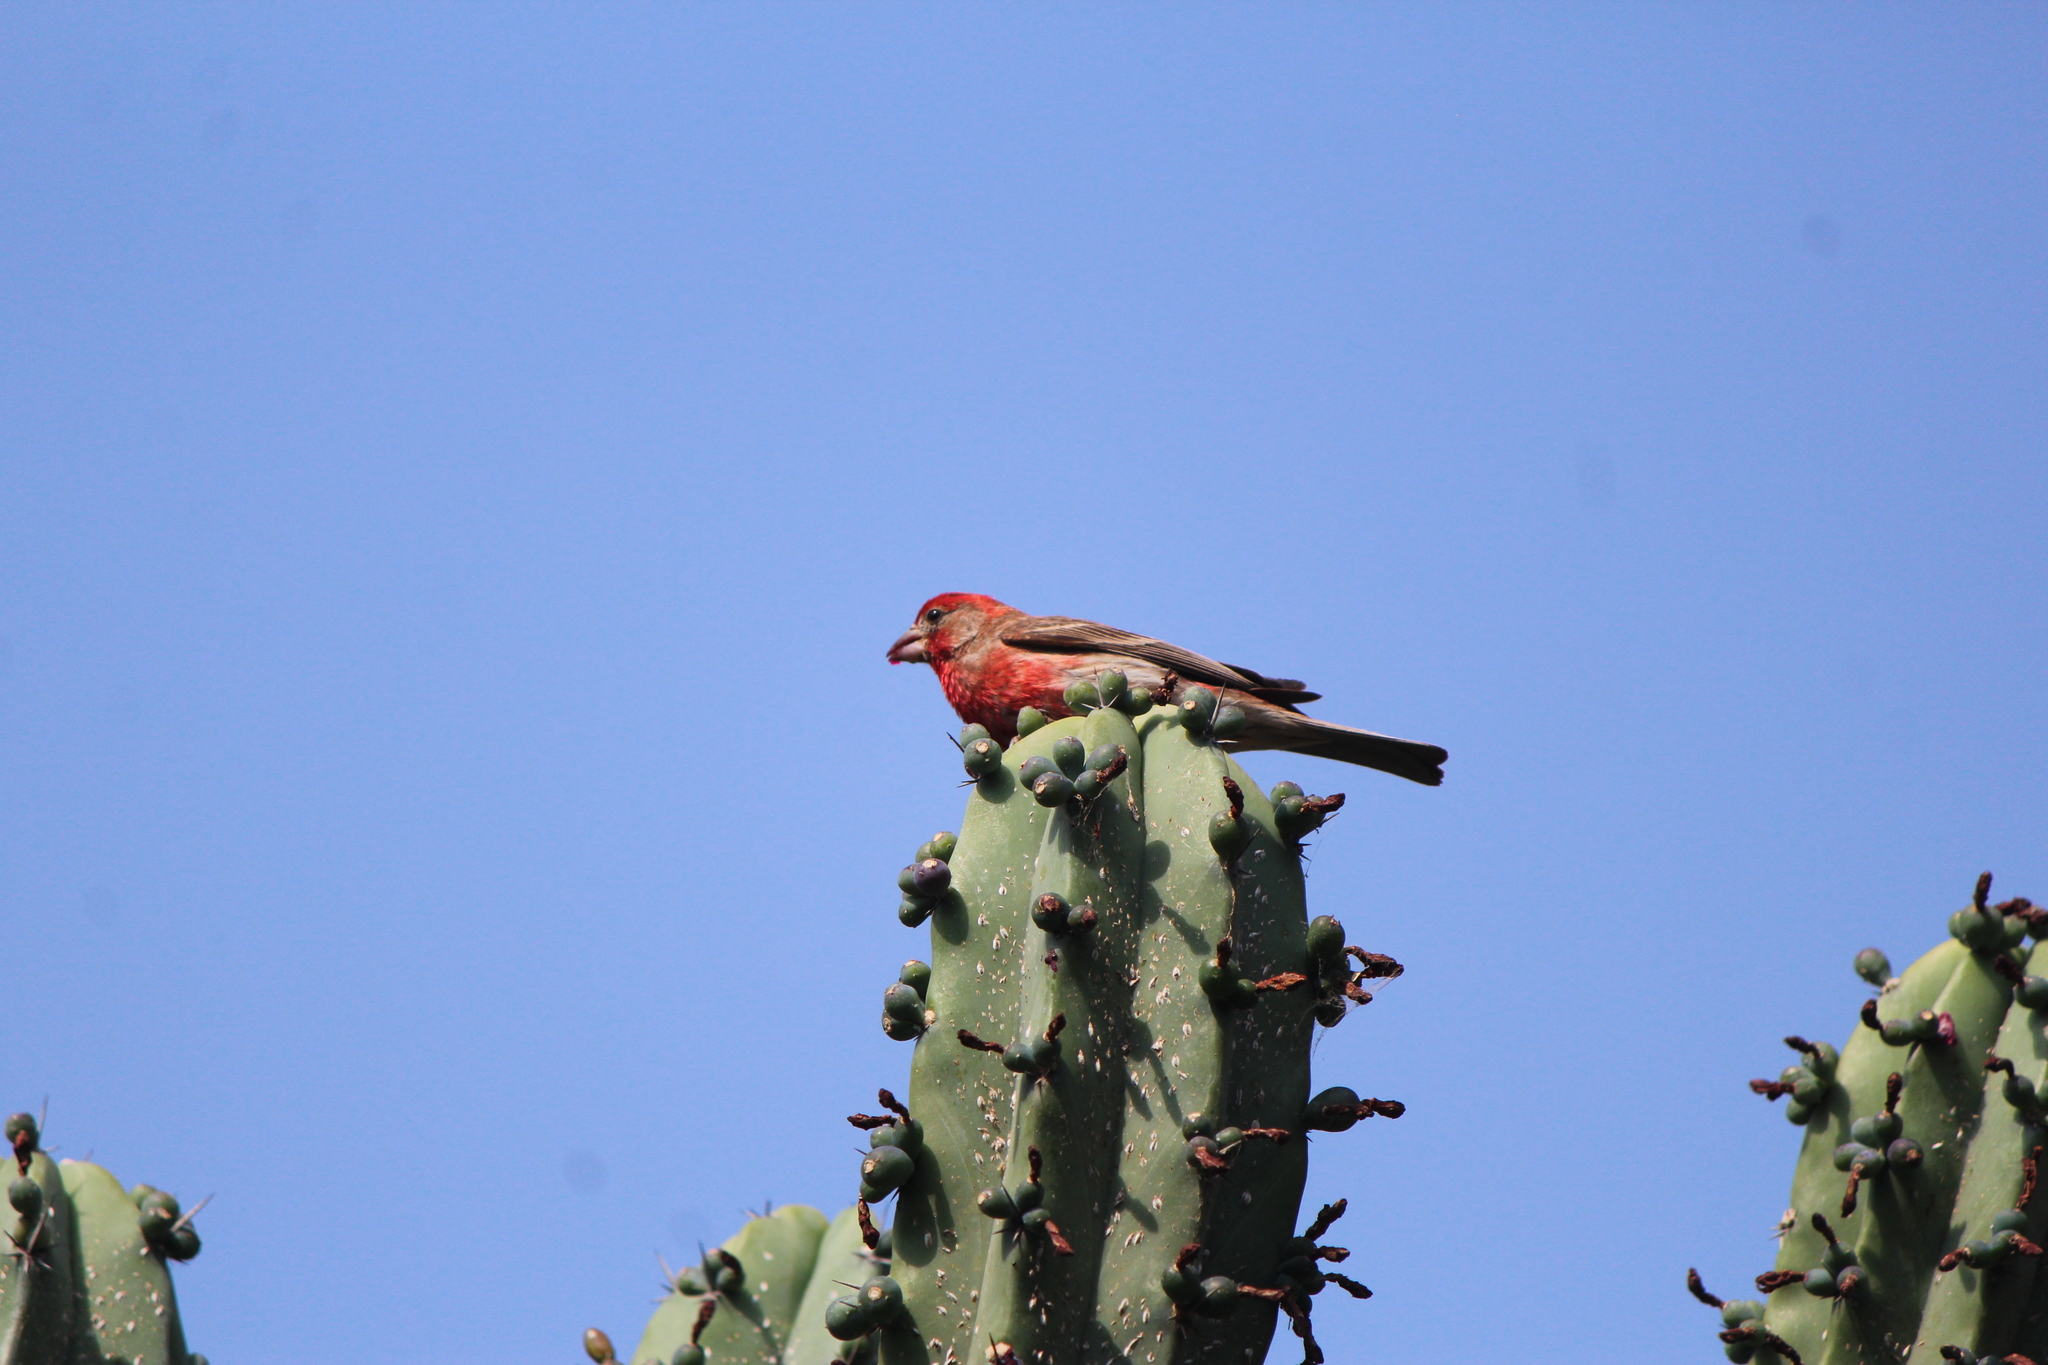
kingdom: Animalia
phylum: Chordata
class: Aves
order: Passeriformes
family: Fringillidae
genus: Haemorhous
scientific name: Haemorhous mexicanus
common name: House finch
